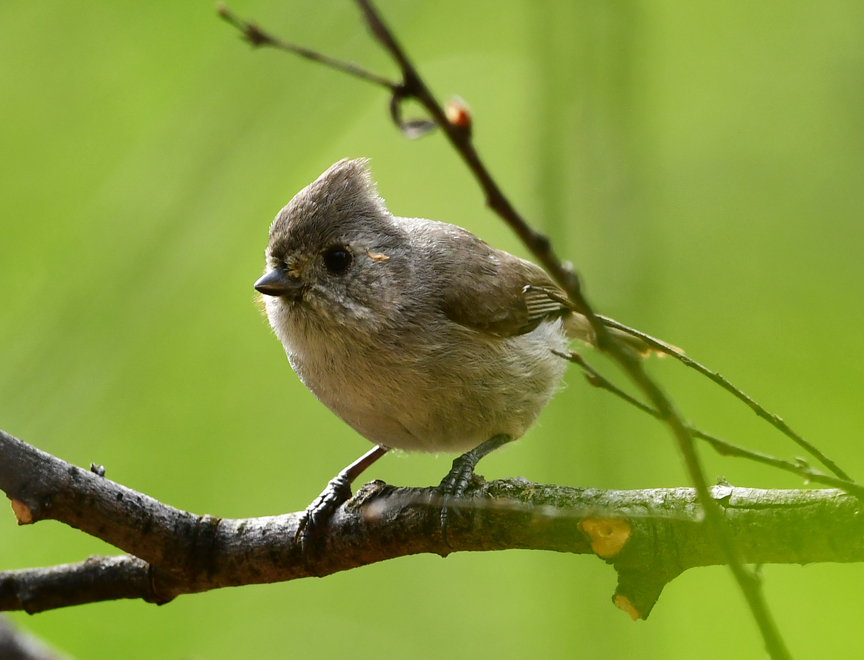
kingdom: Animalia
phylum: Chordata
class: Aves
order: Passeriformes
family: Paridae
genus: Baeolophus
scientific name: Baeolophus inornatus
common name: Oak titmouse
